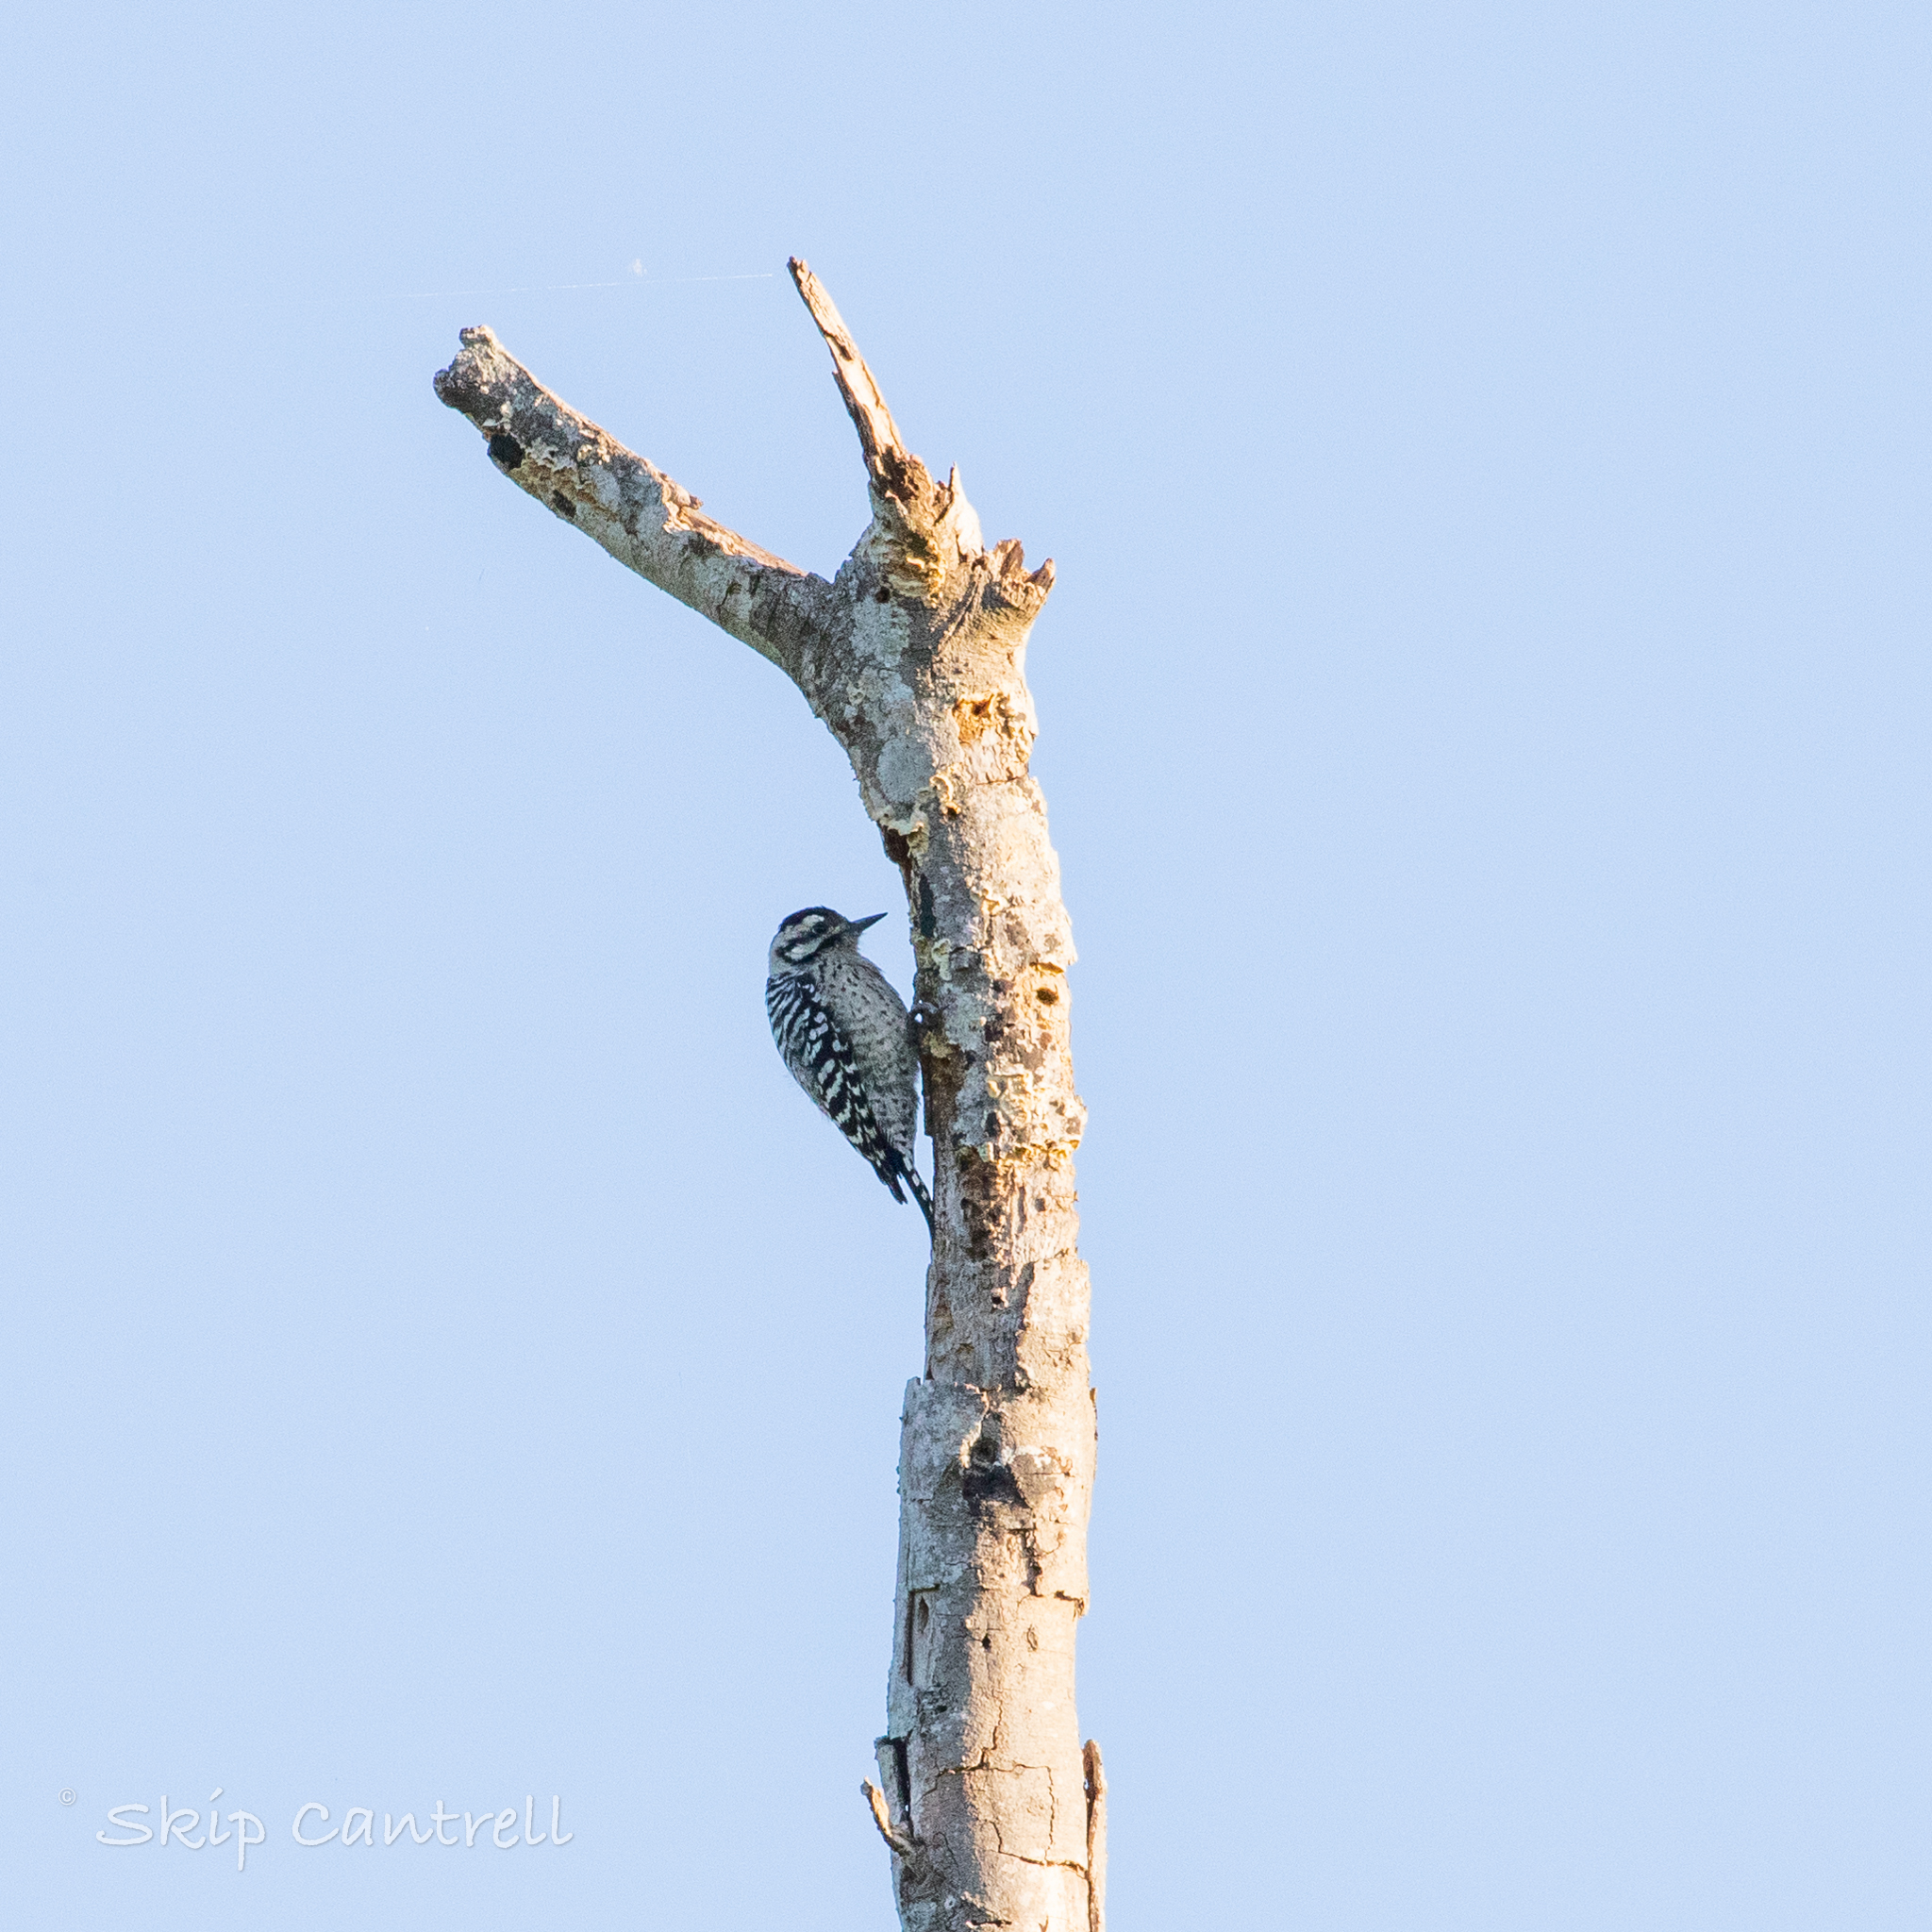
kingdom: Animalia
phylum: Chordata
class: Aves
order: Piciformes
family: Picidae
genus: Dryobates
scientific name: Dryobates scalaris
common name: Ladder-backed woodpecker
